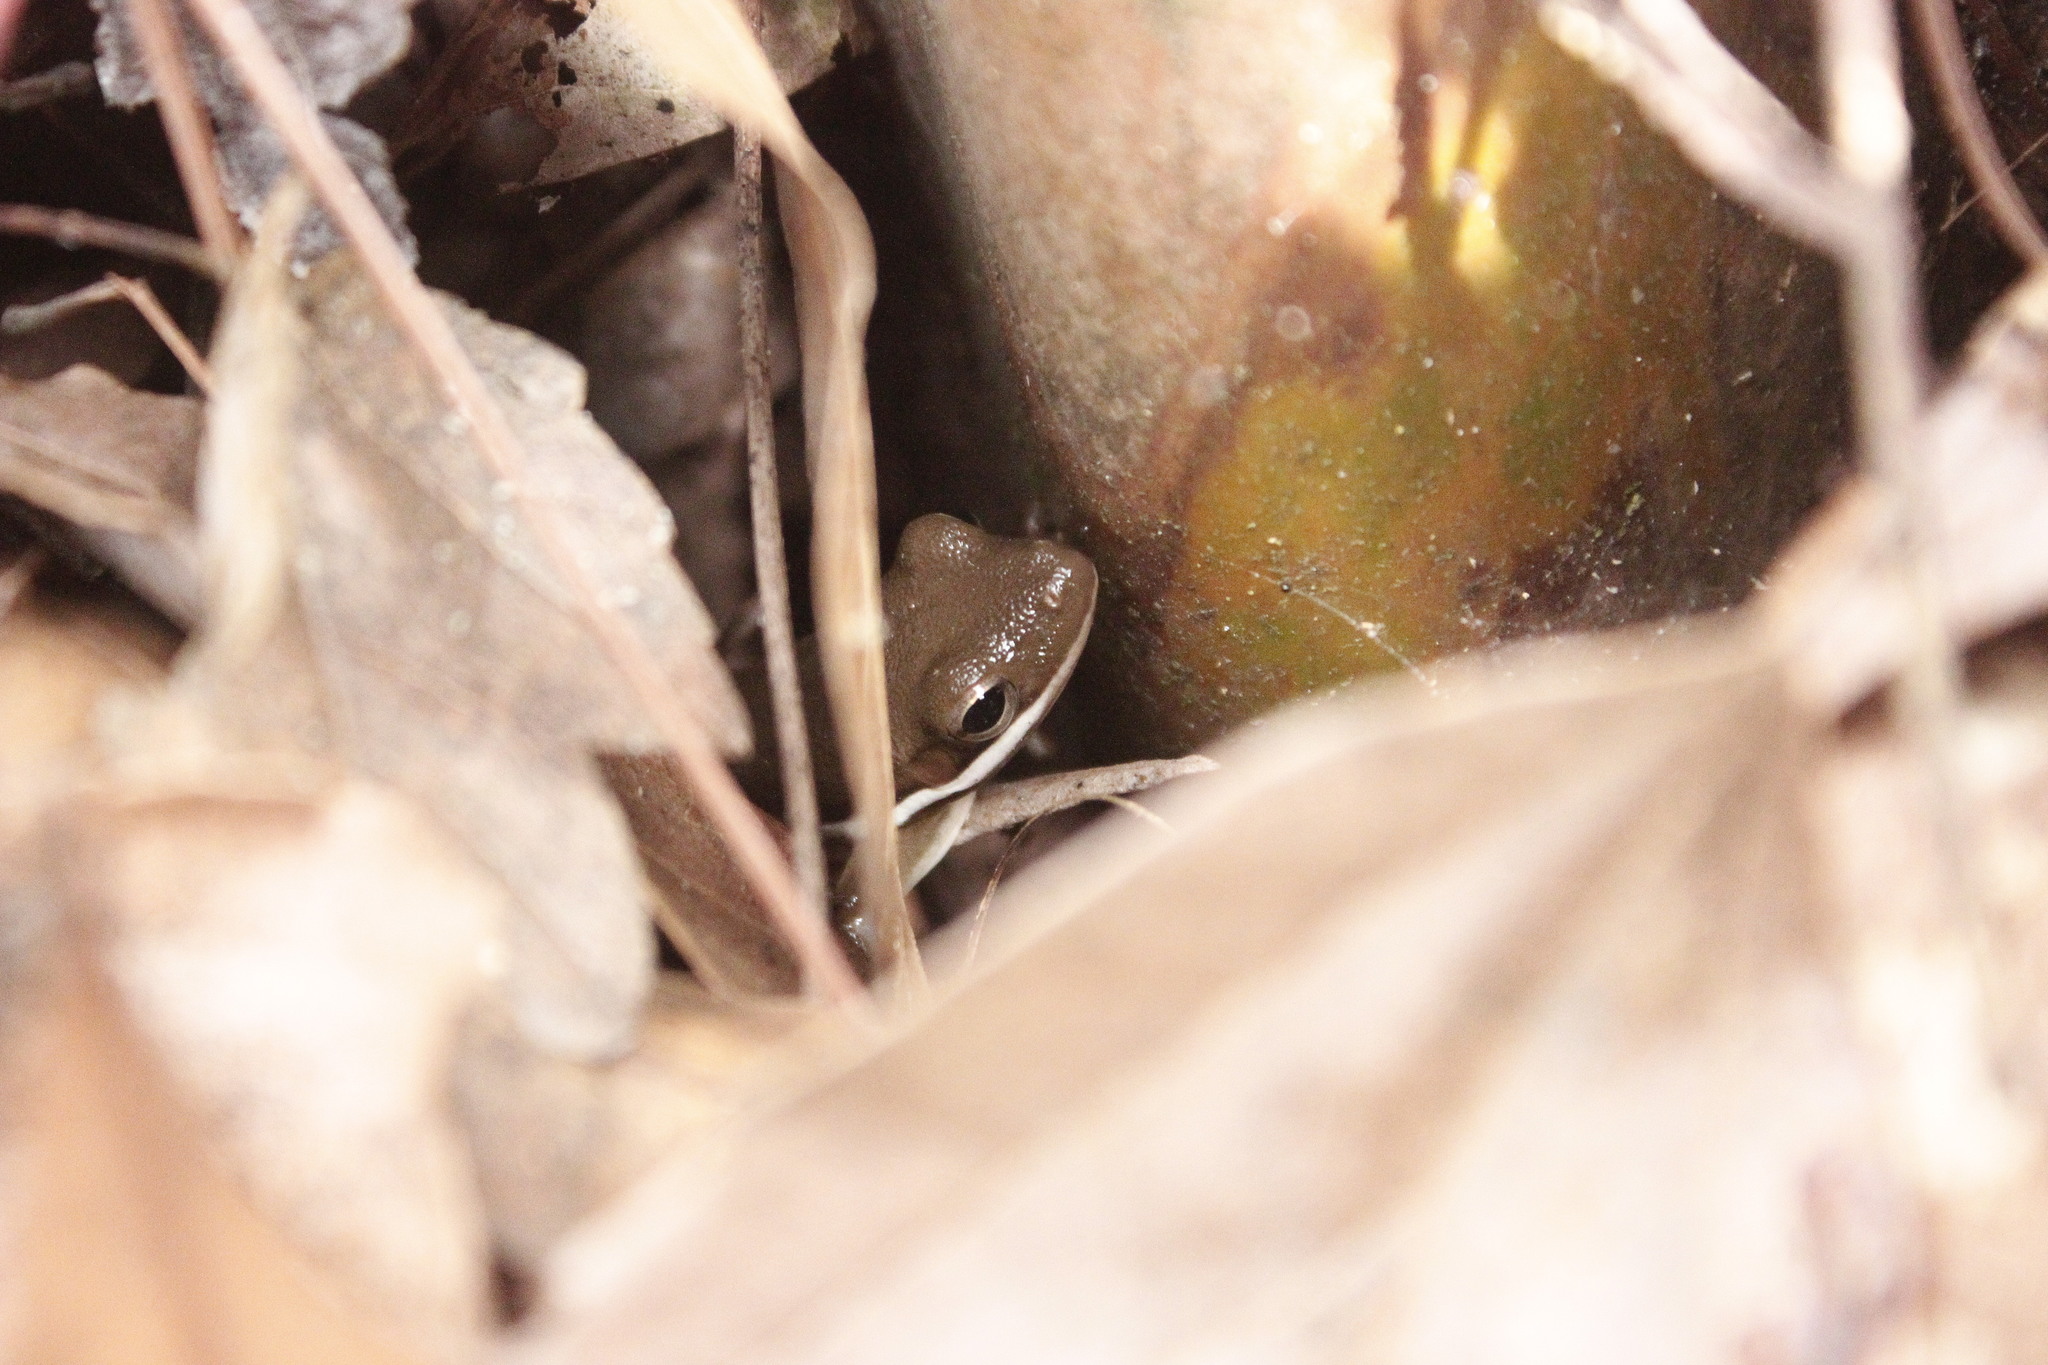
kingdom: Animalia
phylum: Chordata
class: Amphibia
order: Anura
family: Hylidae
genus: Dryophytes
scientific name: Dryophytes cinereus
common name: Green treefrog
